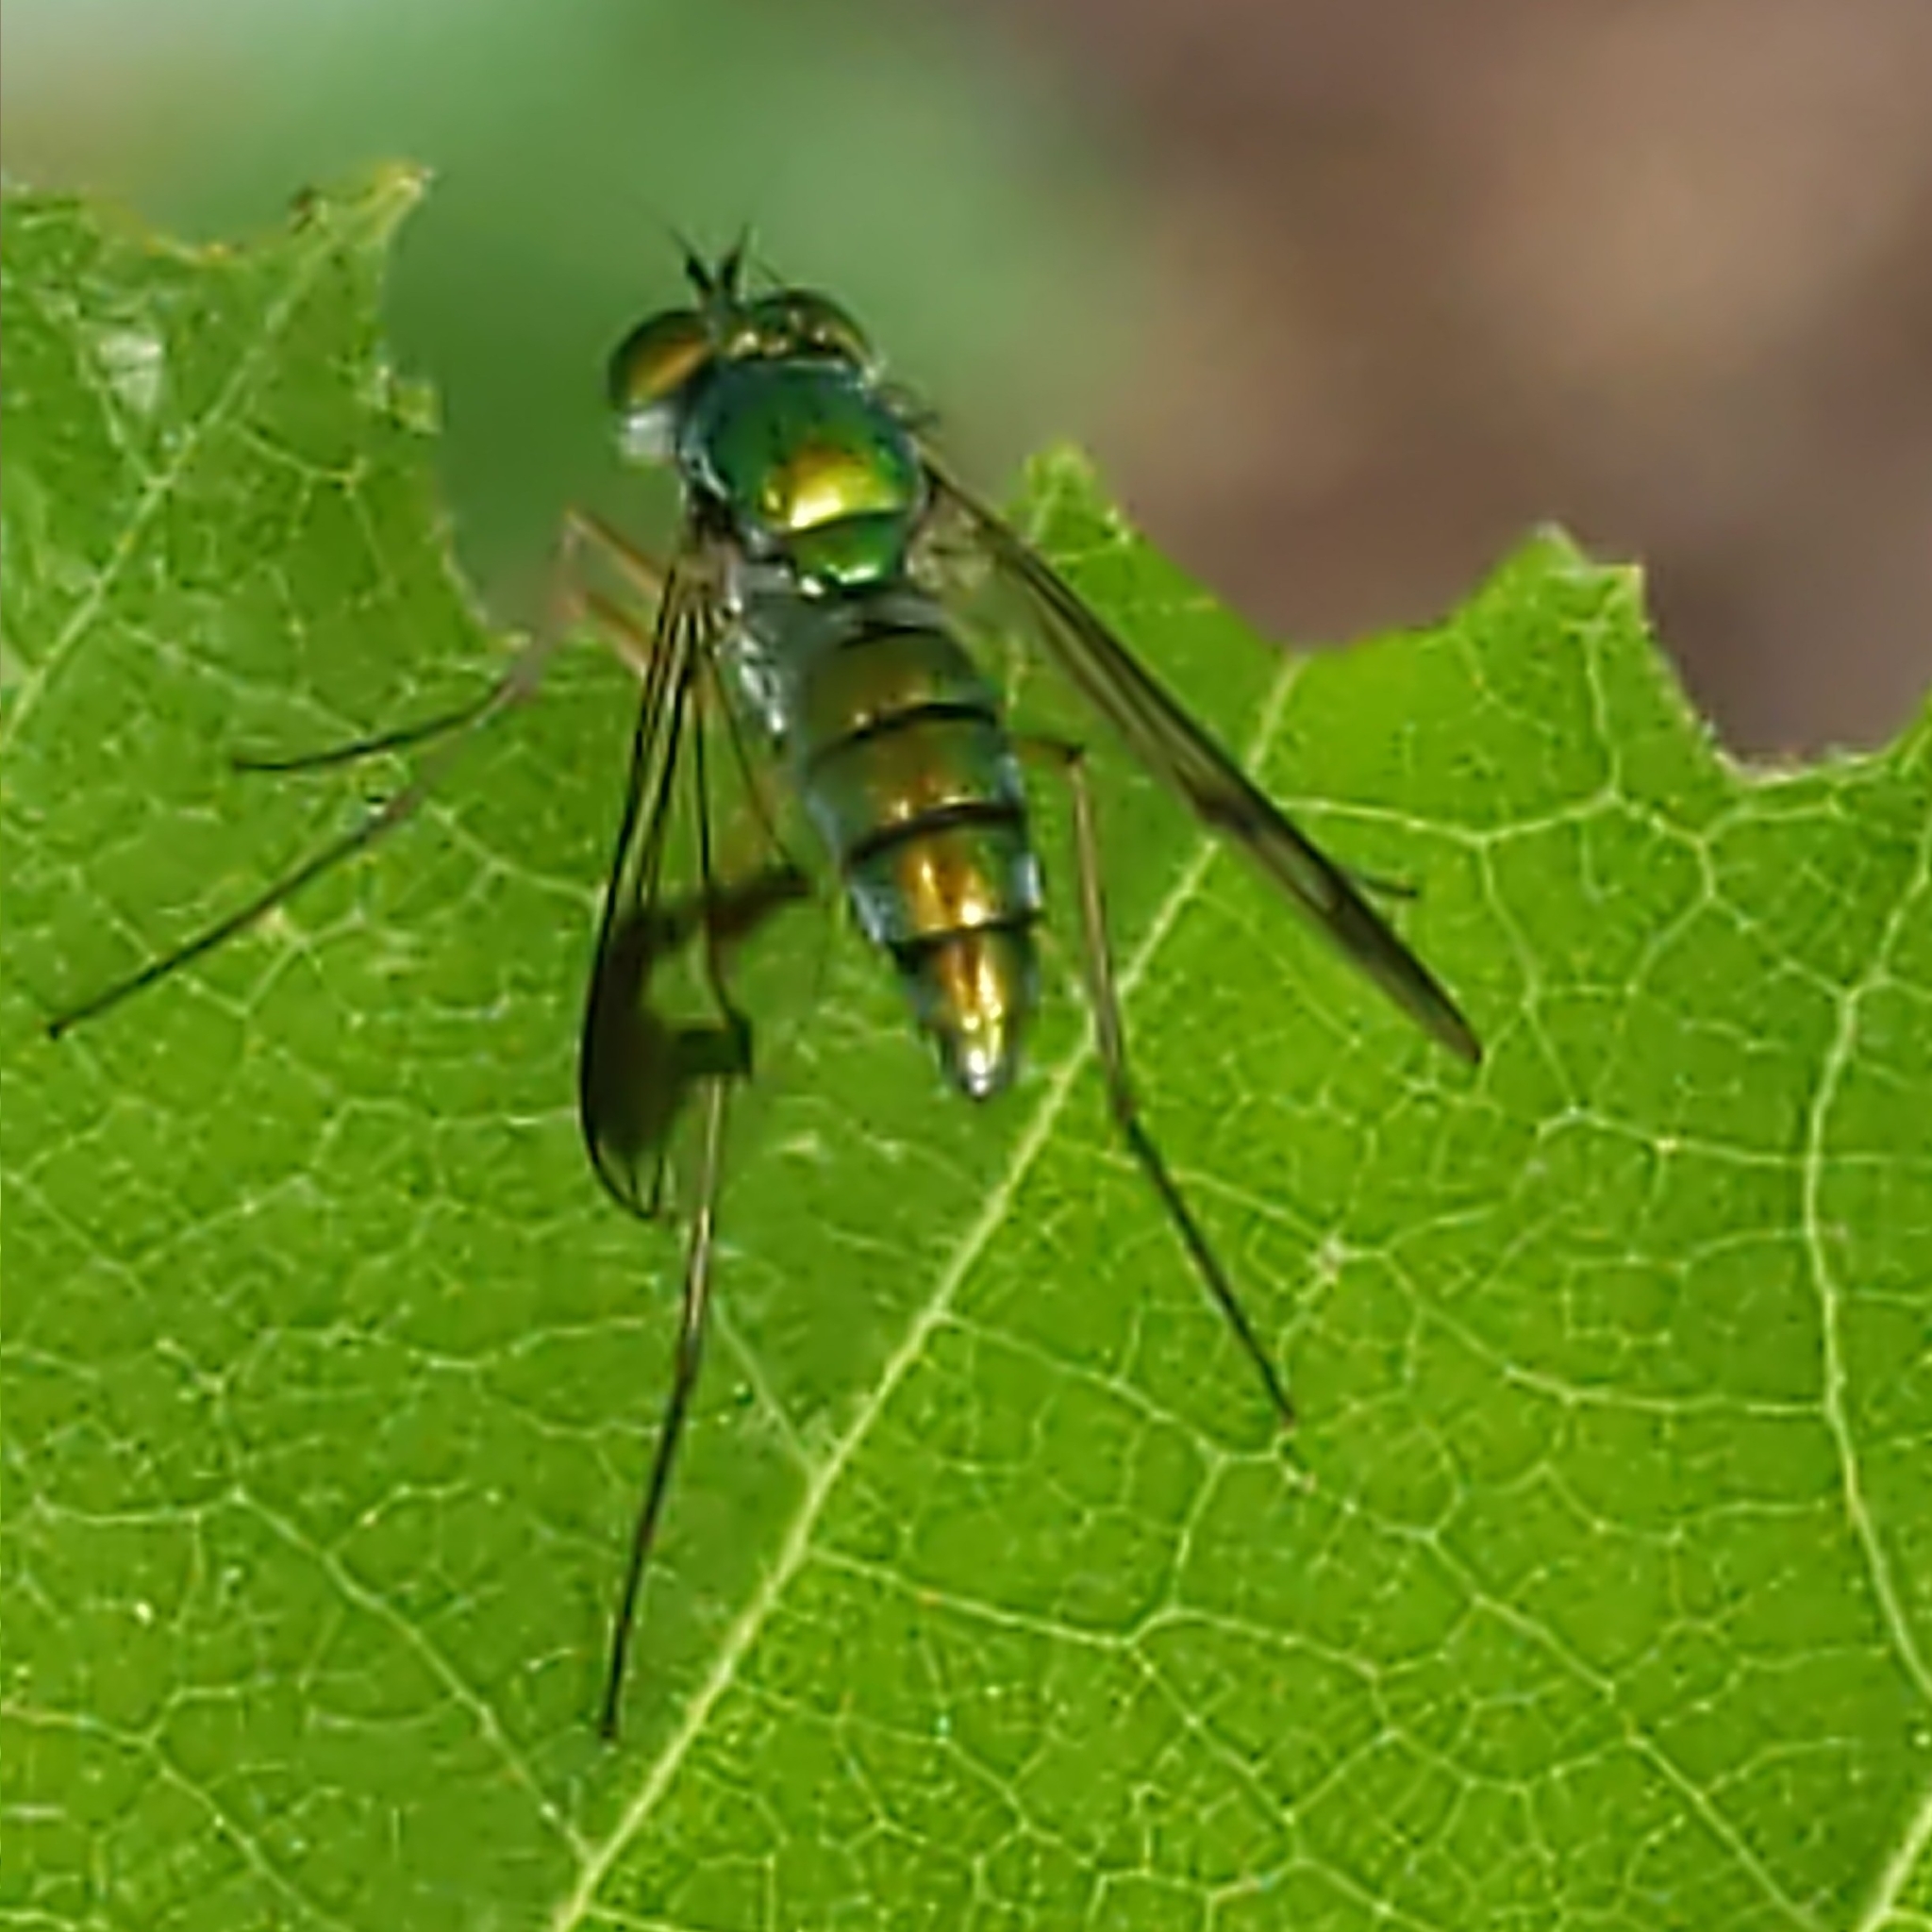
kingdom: Animalia
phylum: Arthropoda
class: Insecta
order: Diptera
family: Dolichopodidae
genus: Condylostylus
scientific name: Condylostylus
